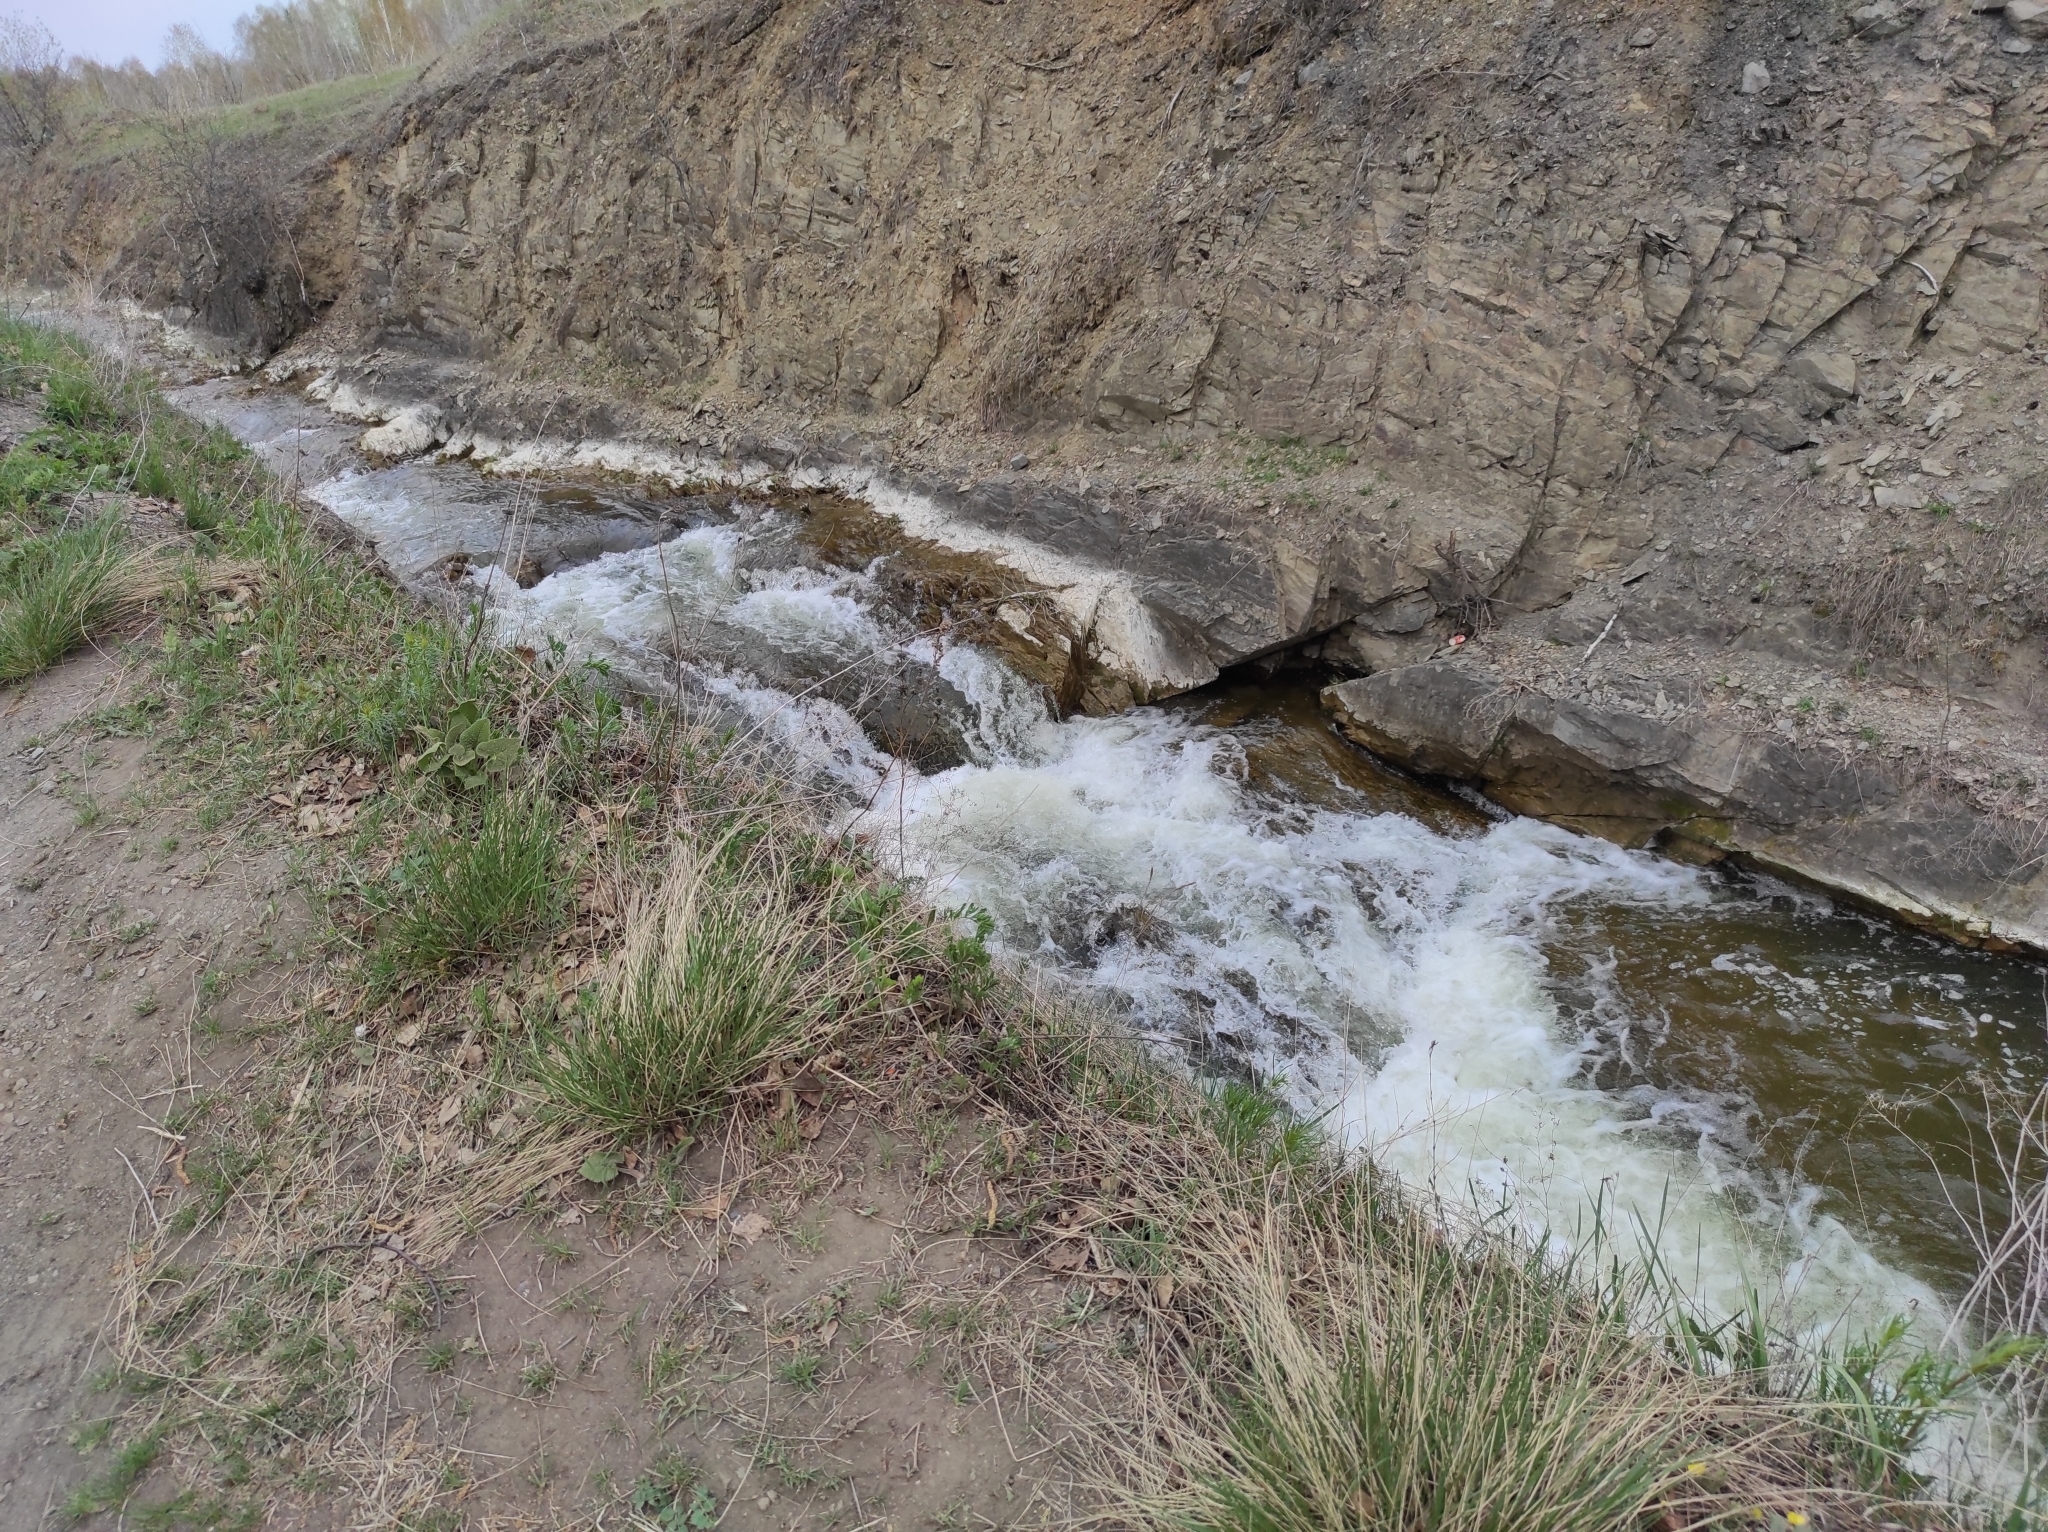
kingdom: Plantae
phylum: Tracheophyta
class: Magnoliopsida
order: Lamiales
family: Lamiaceae
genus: Phlomoides
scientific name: Phlomoides tuberosa
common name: Tuberous jerusalem sage
